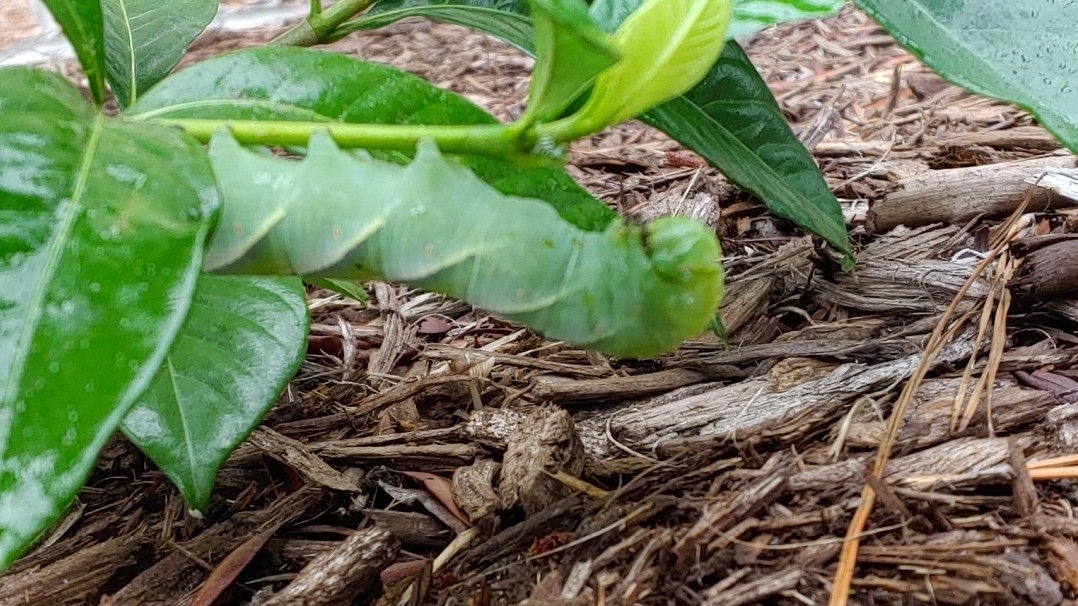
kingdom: Animalia
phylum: Arthropoda
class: Insecta
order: Lepidoptera
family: Sphingidae
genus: Manduca
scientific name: Manduca rustica
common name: Rustic sphinx
